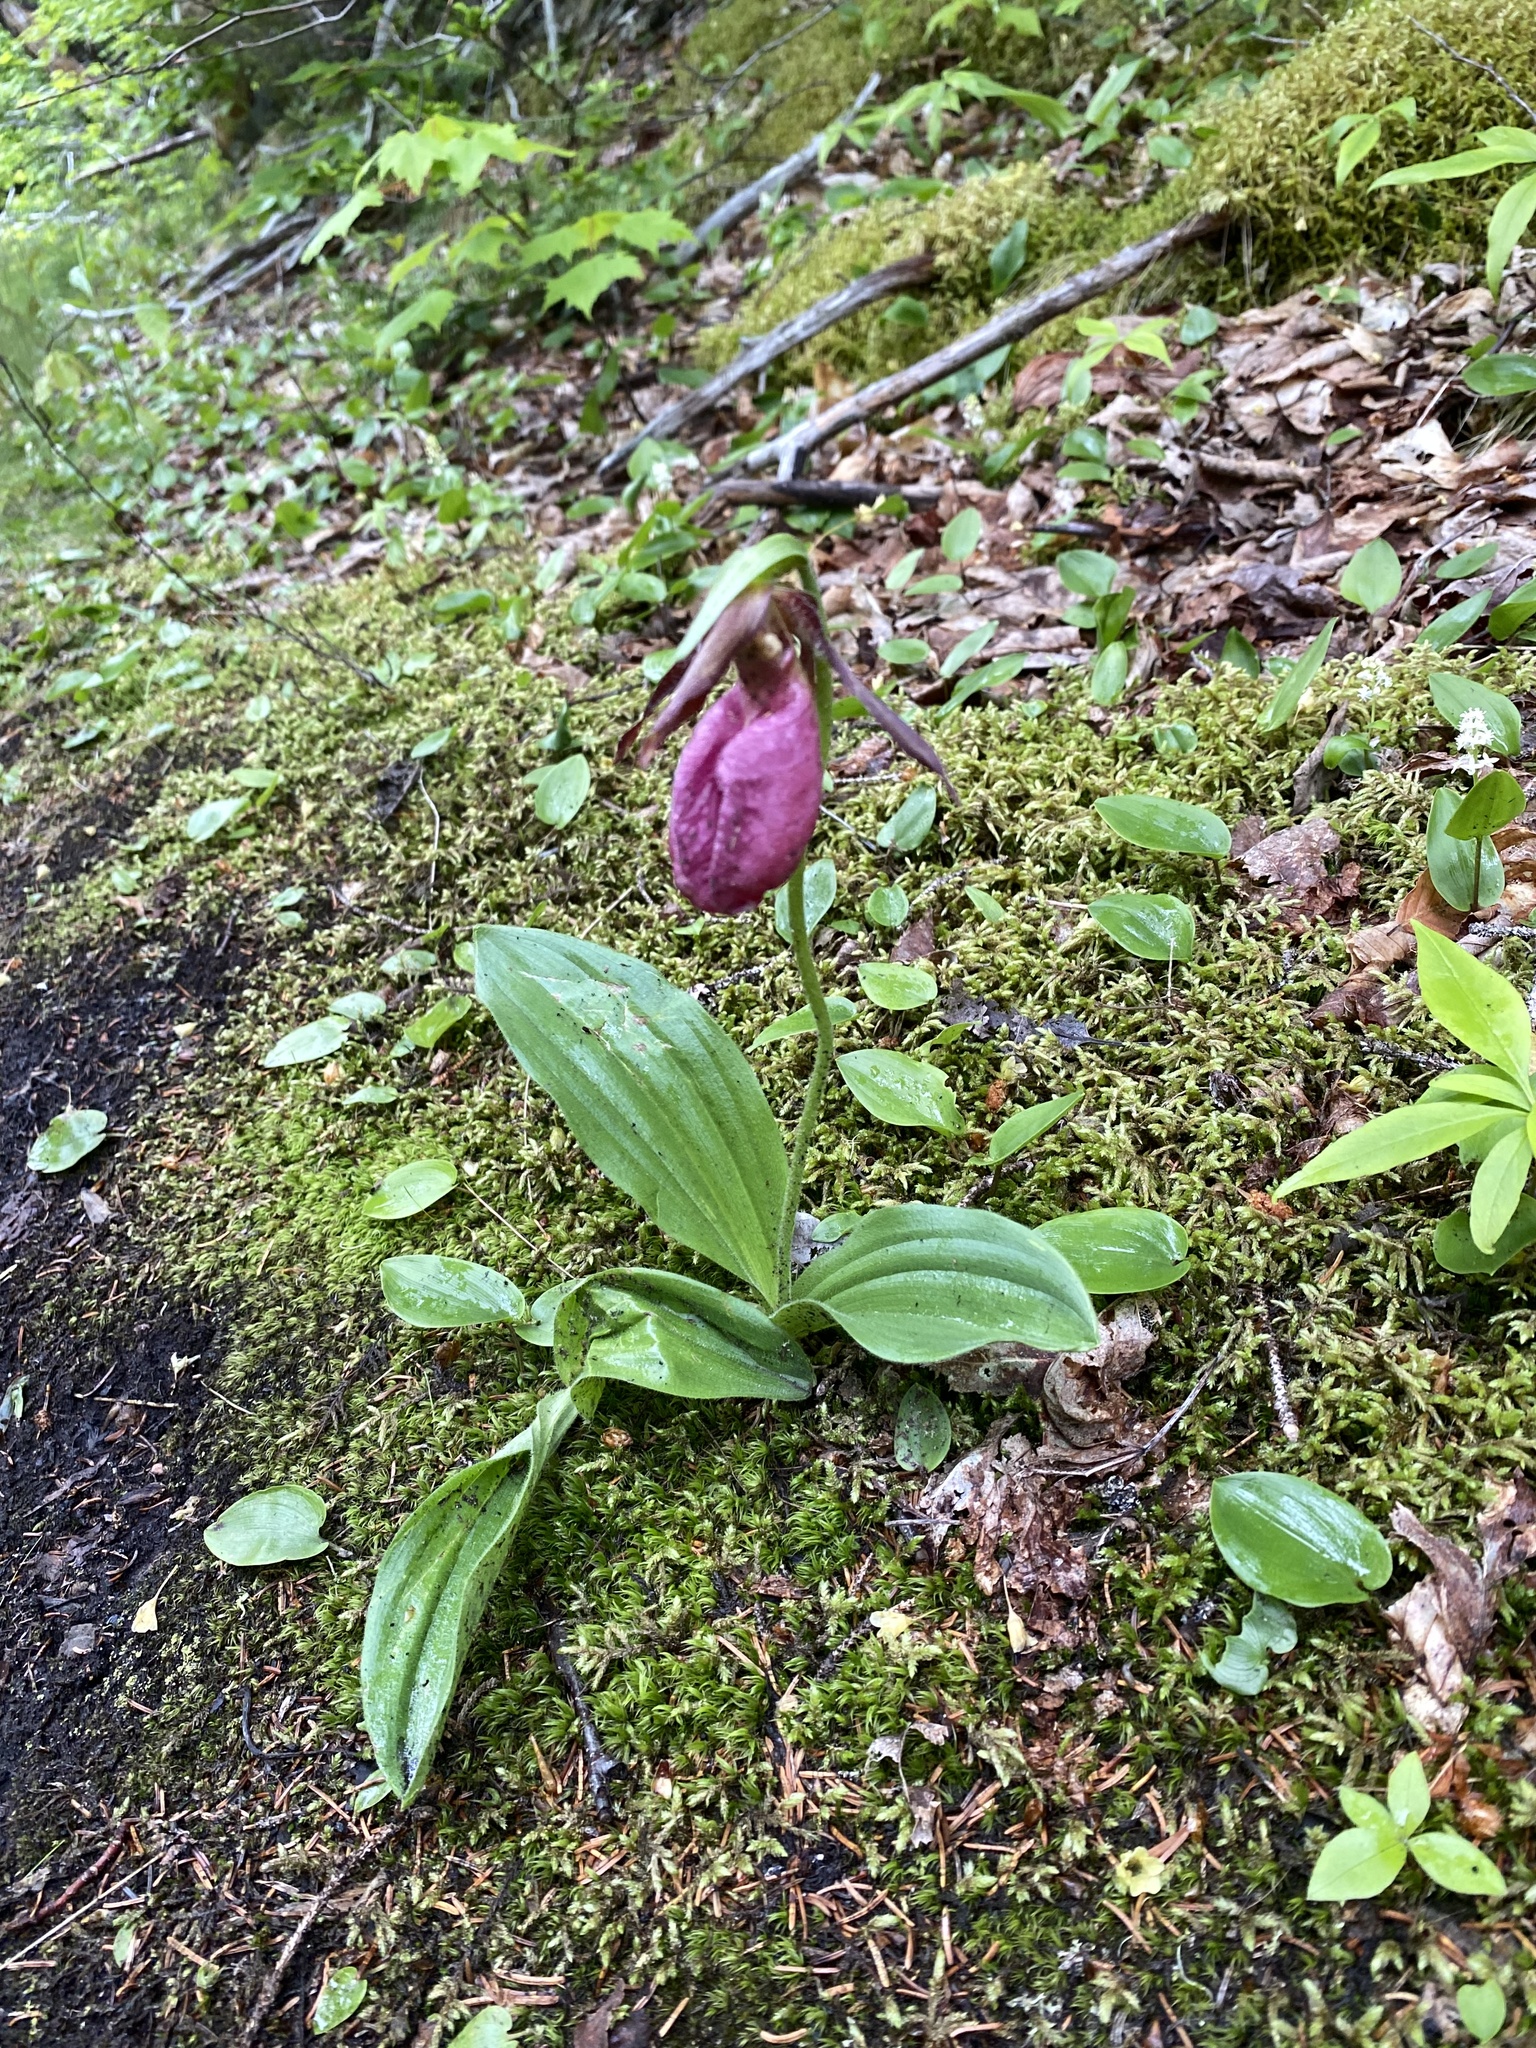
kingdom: Plantae
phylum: Tracheophyta
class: Liliopsida
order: Asparagales
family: Orchidaceae
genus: Cypripedium
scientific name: Cypripedium acaule
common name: Pink lady's-slipper
